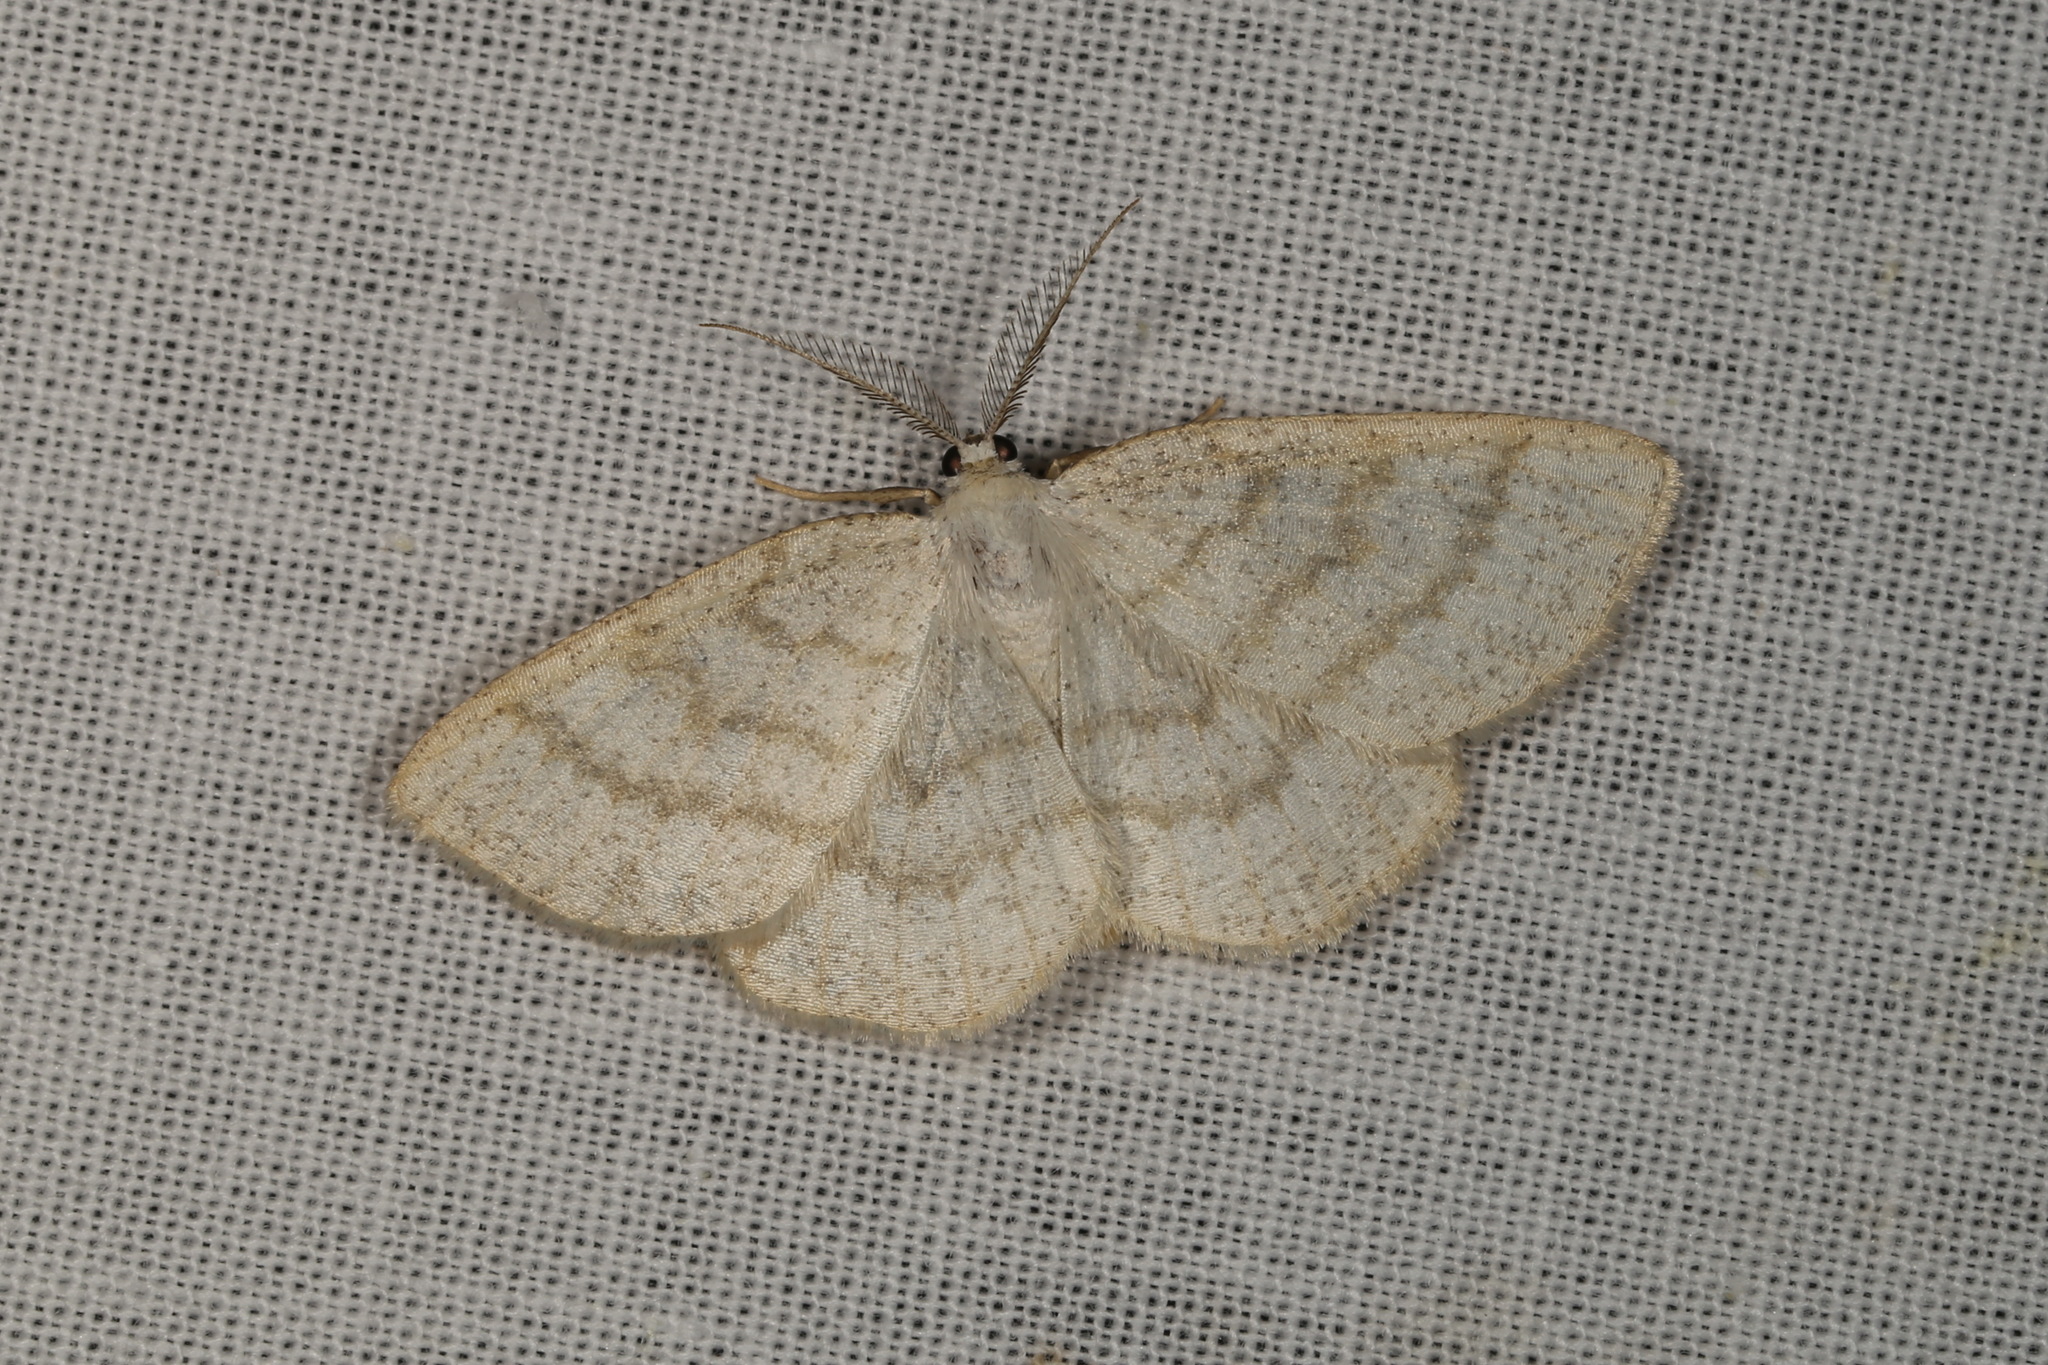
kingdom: Animalia
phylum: Arthropoda
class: Insecta
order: Lepidoptera
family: Geometridae
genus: Cabera
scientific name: Cabera exanthemata
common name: Common wave
